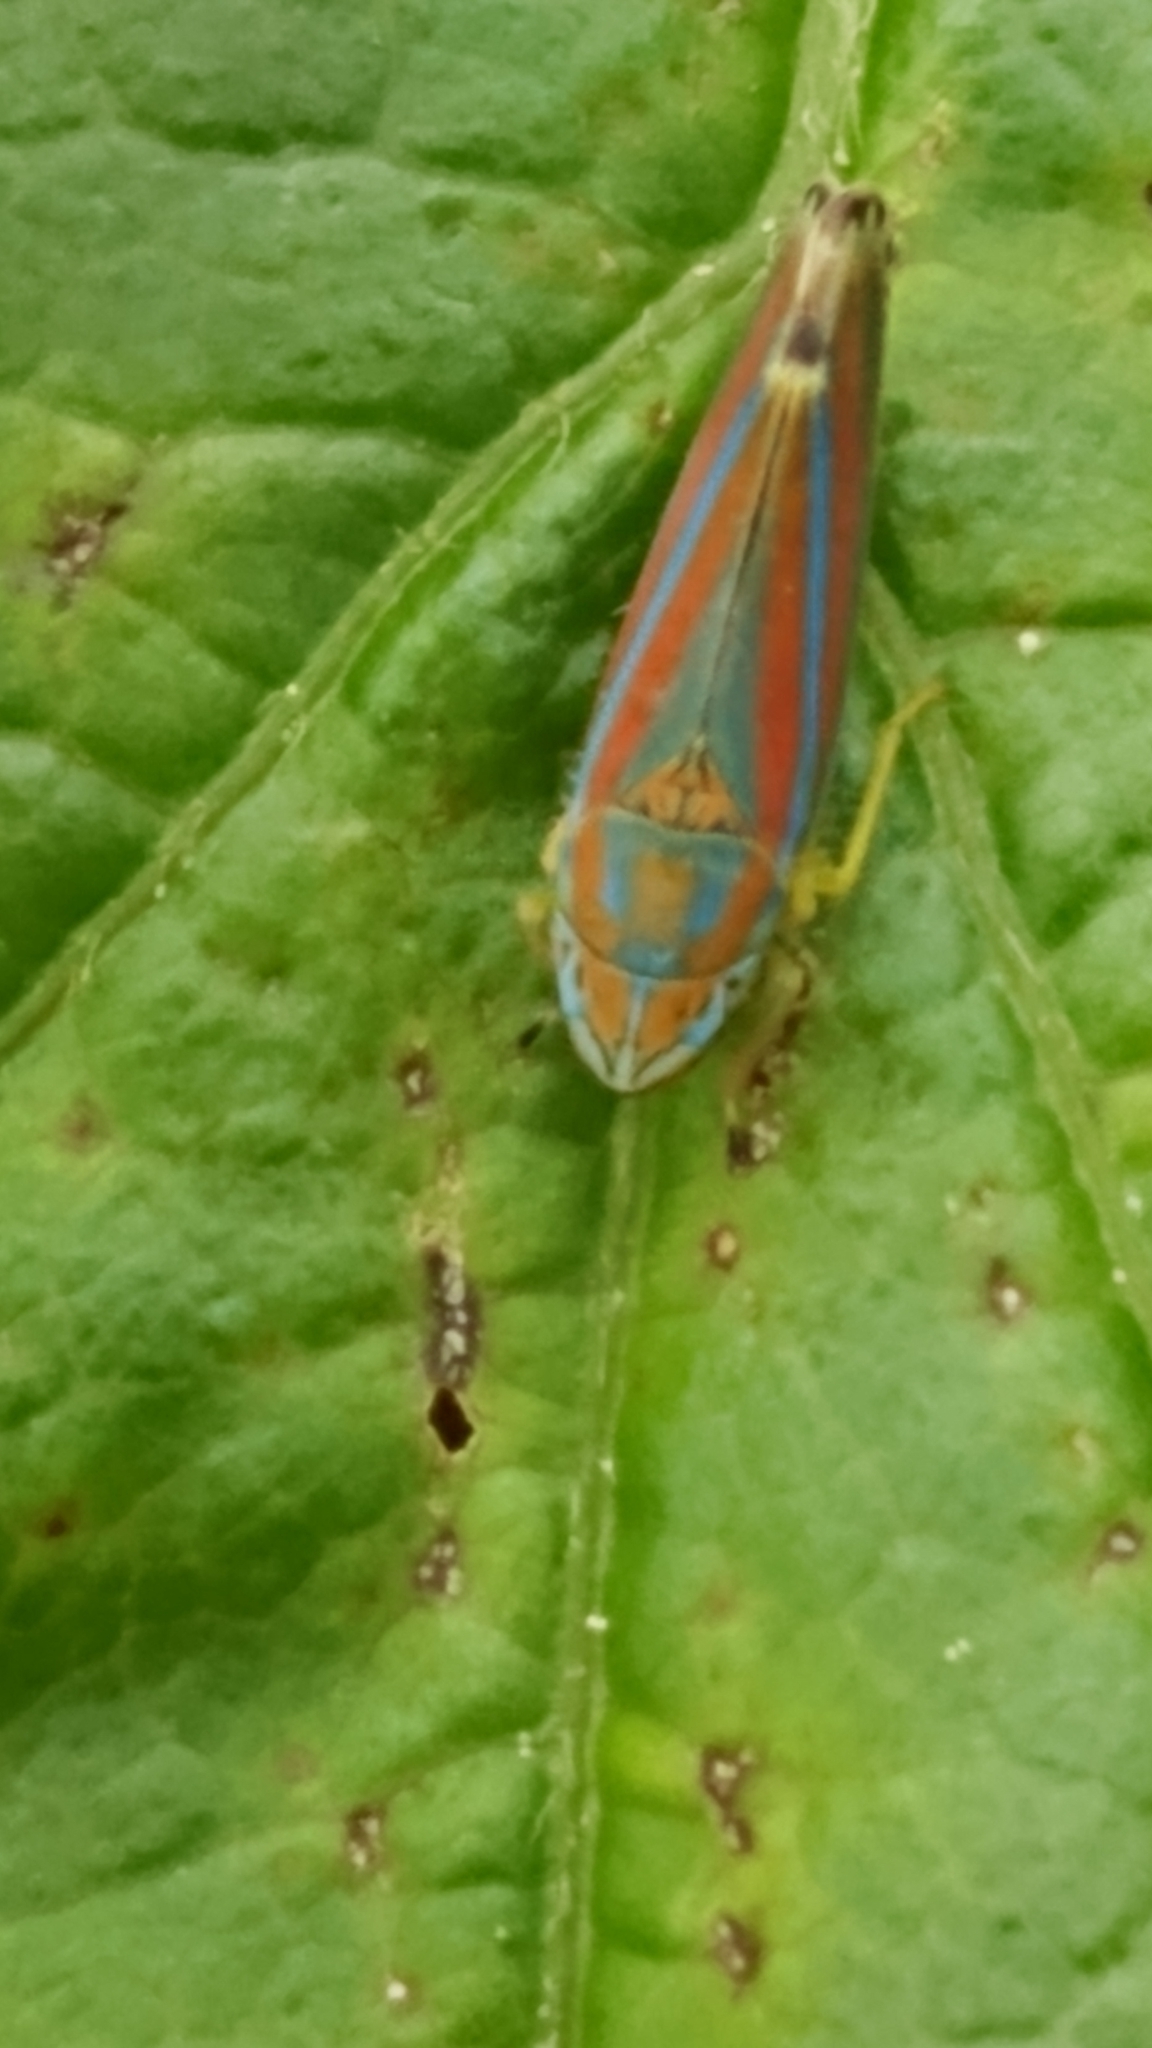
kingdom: Animalia
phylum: Arthropoda
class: Insecta
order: Hemiptera
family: Cicadellidae
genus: Graphocephala
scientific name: Graphocephala versuta
